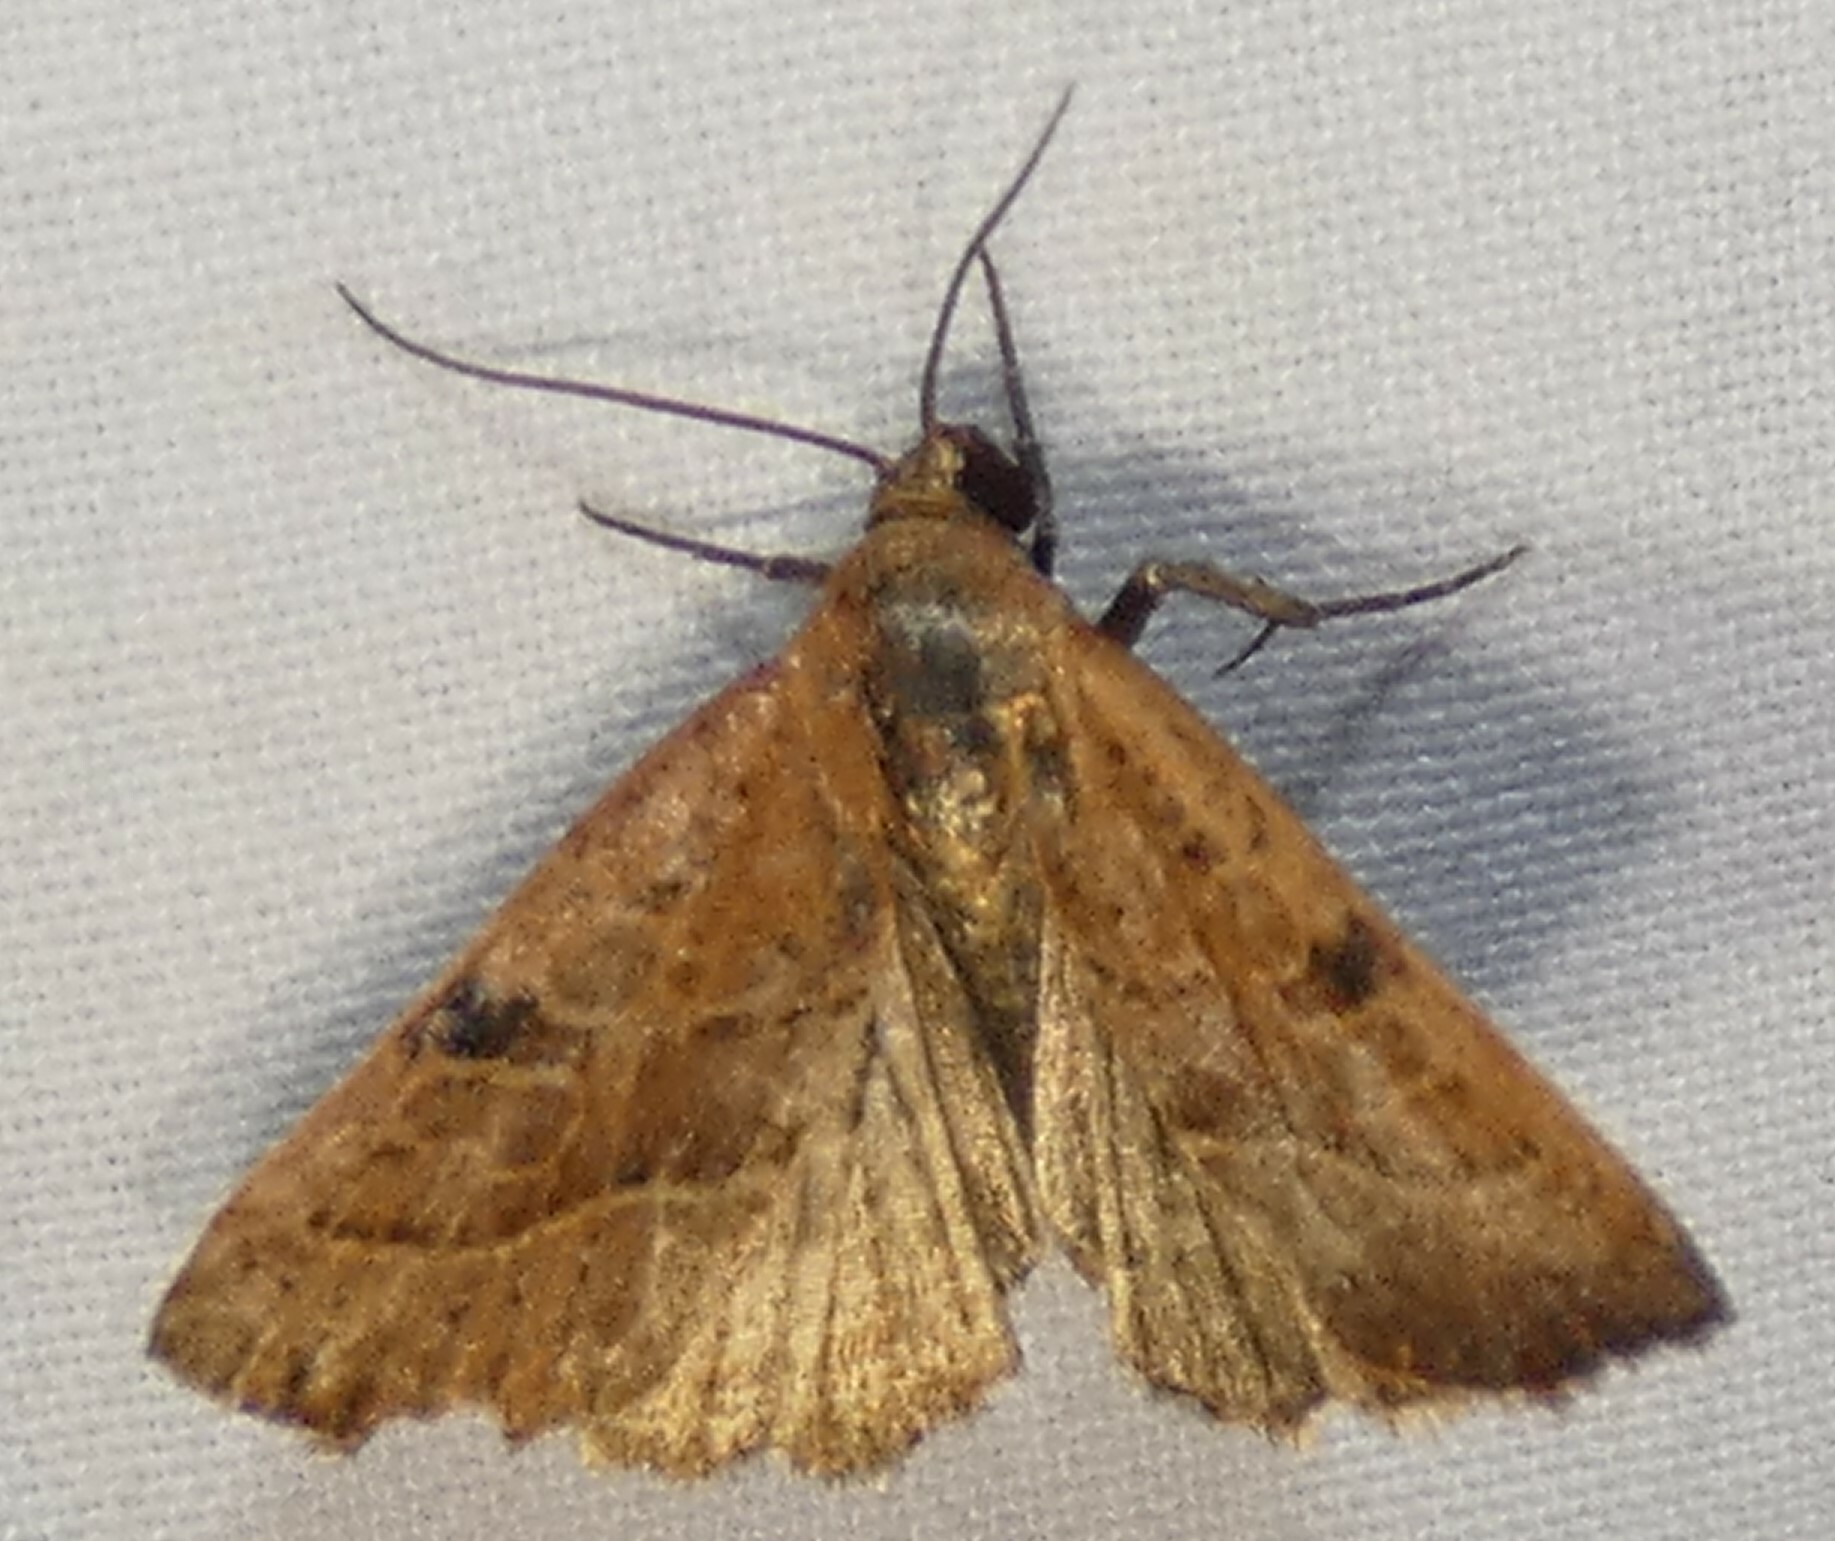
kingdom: Animalia
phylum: Arthropoda
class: Insecta
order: Lepidoptera
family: Noctuidae
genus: Galgula
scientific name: Galgula partita
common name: Wedgeling
